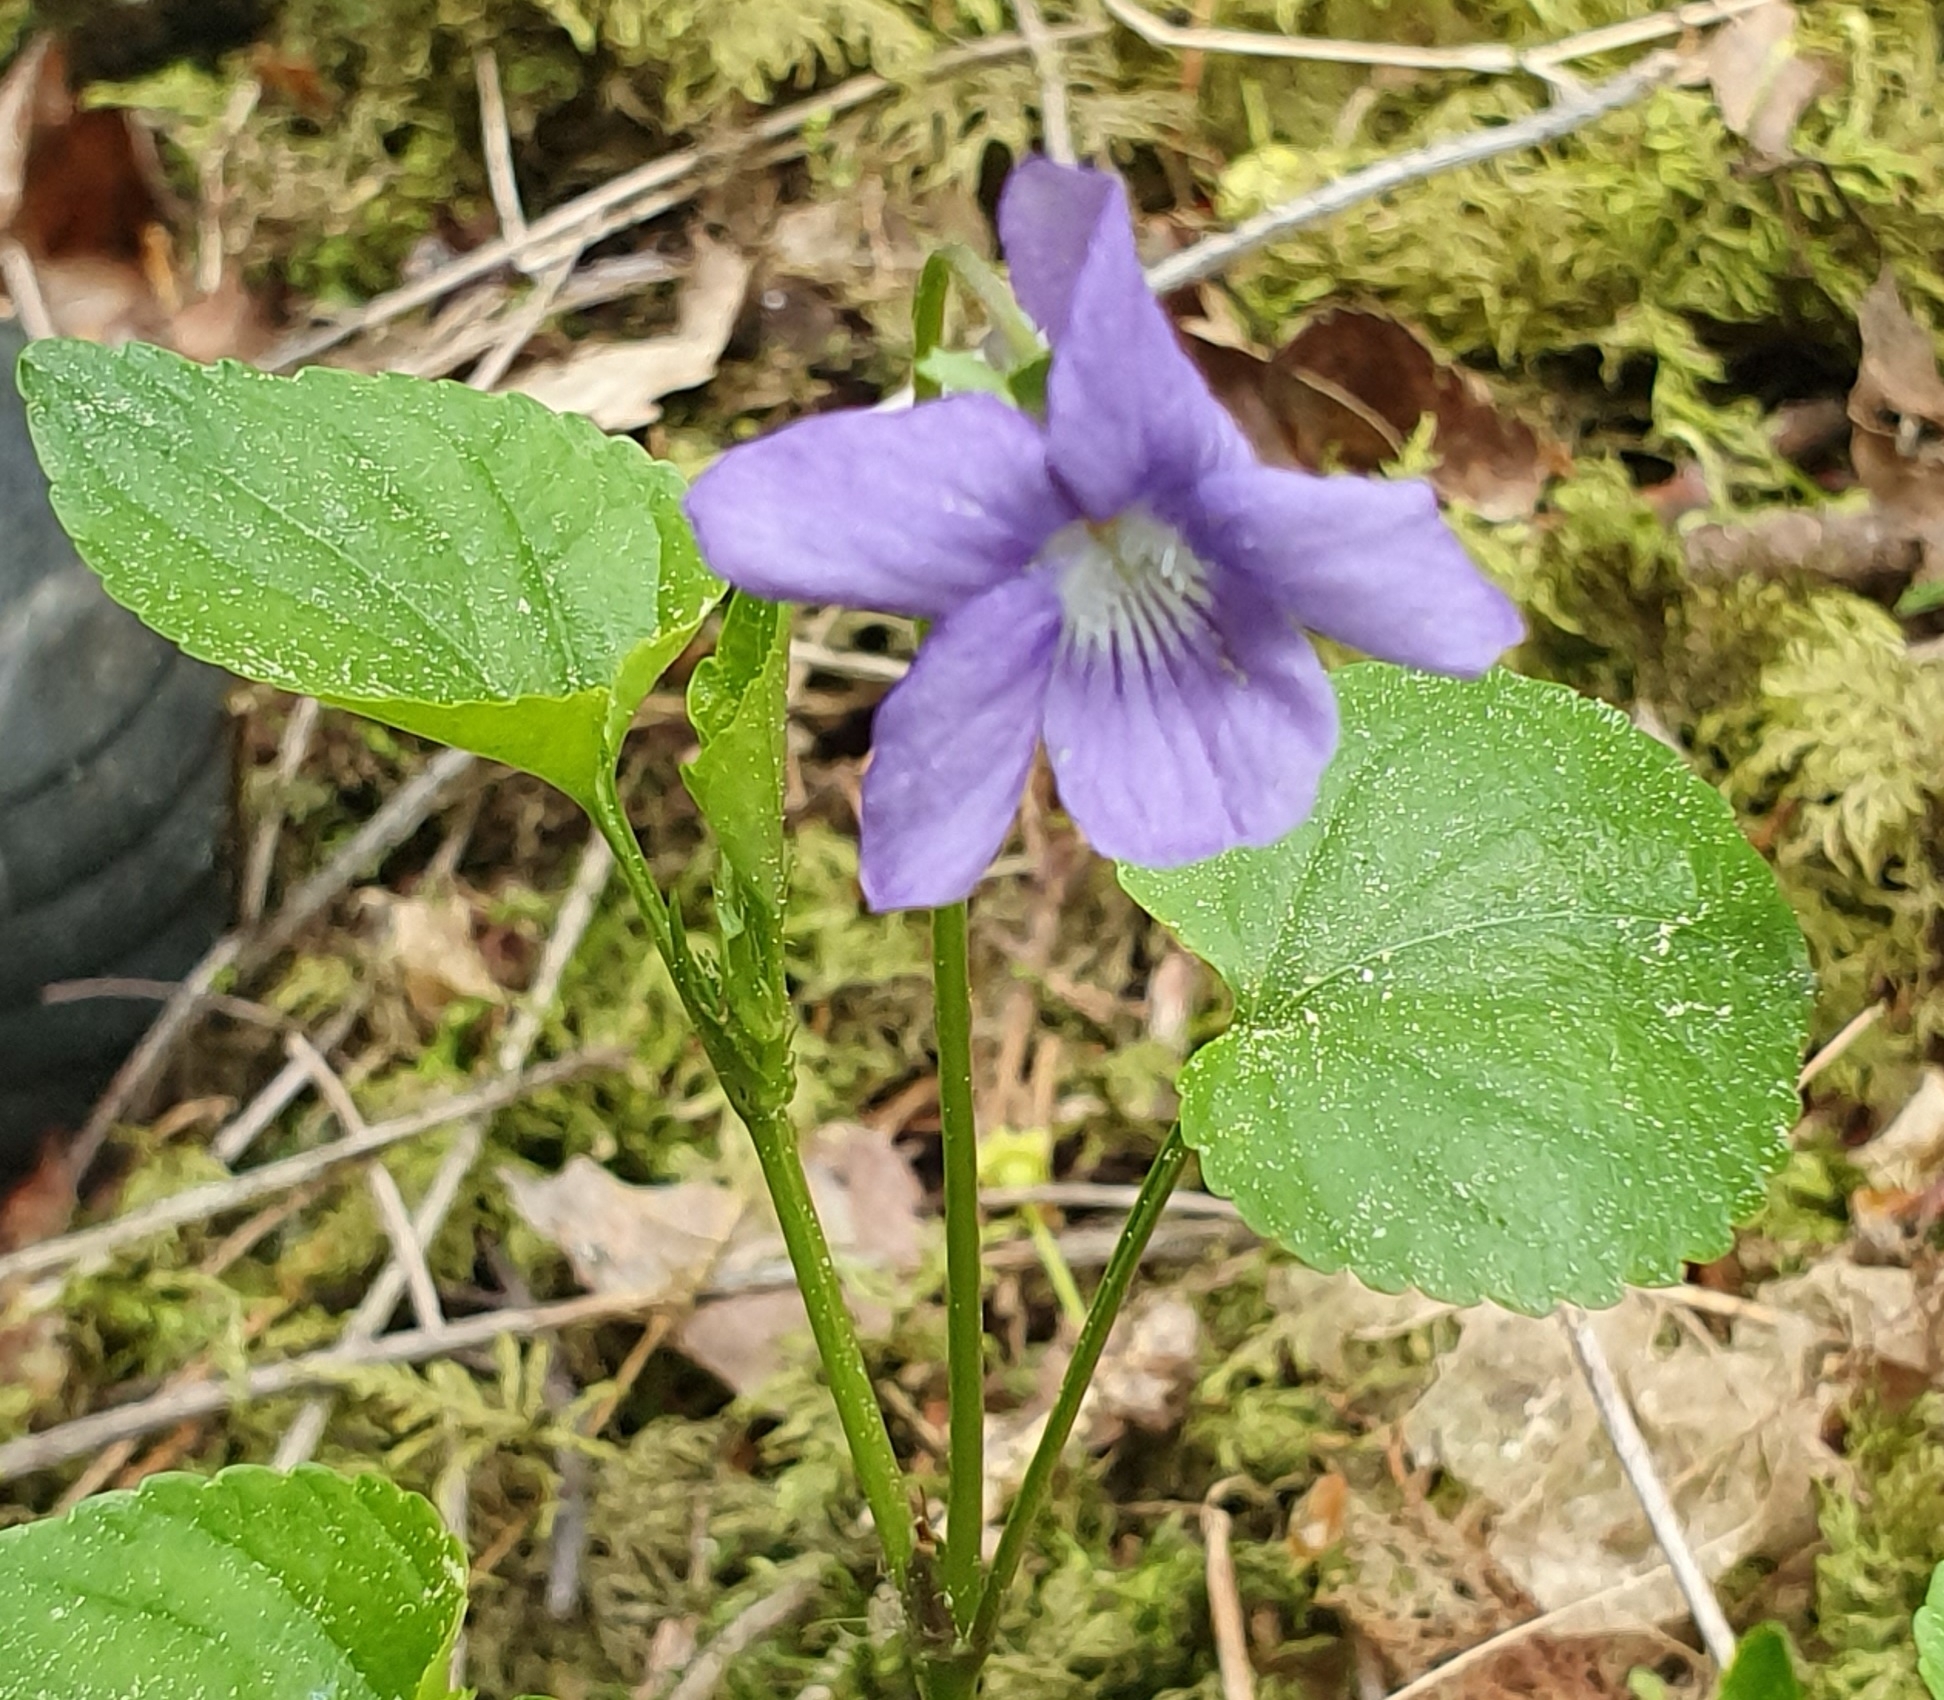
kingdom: Plantae
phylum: Tracheophyta
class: Magnoliopsida
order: Malpighiales
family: Violaceae
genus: Viola
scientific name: Viola riviniana
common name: Common dog-violet
